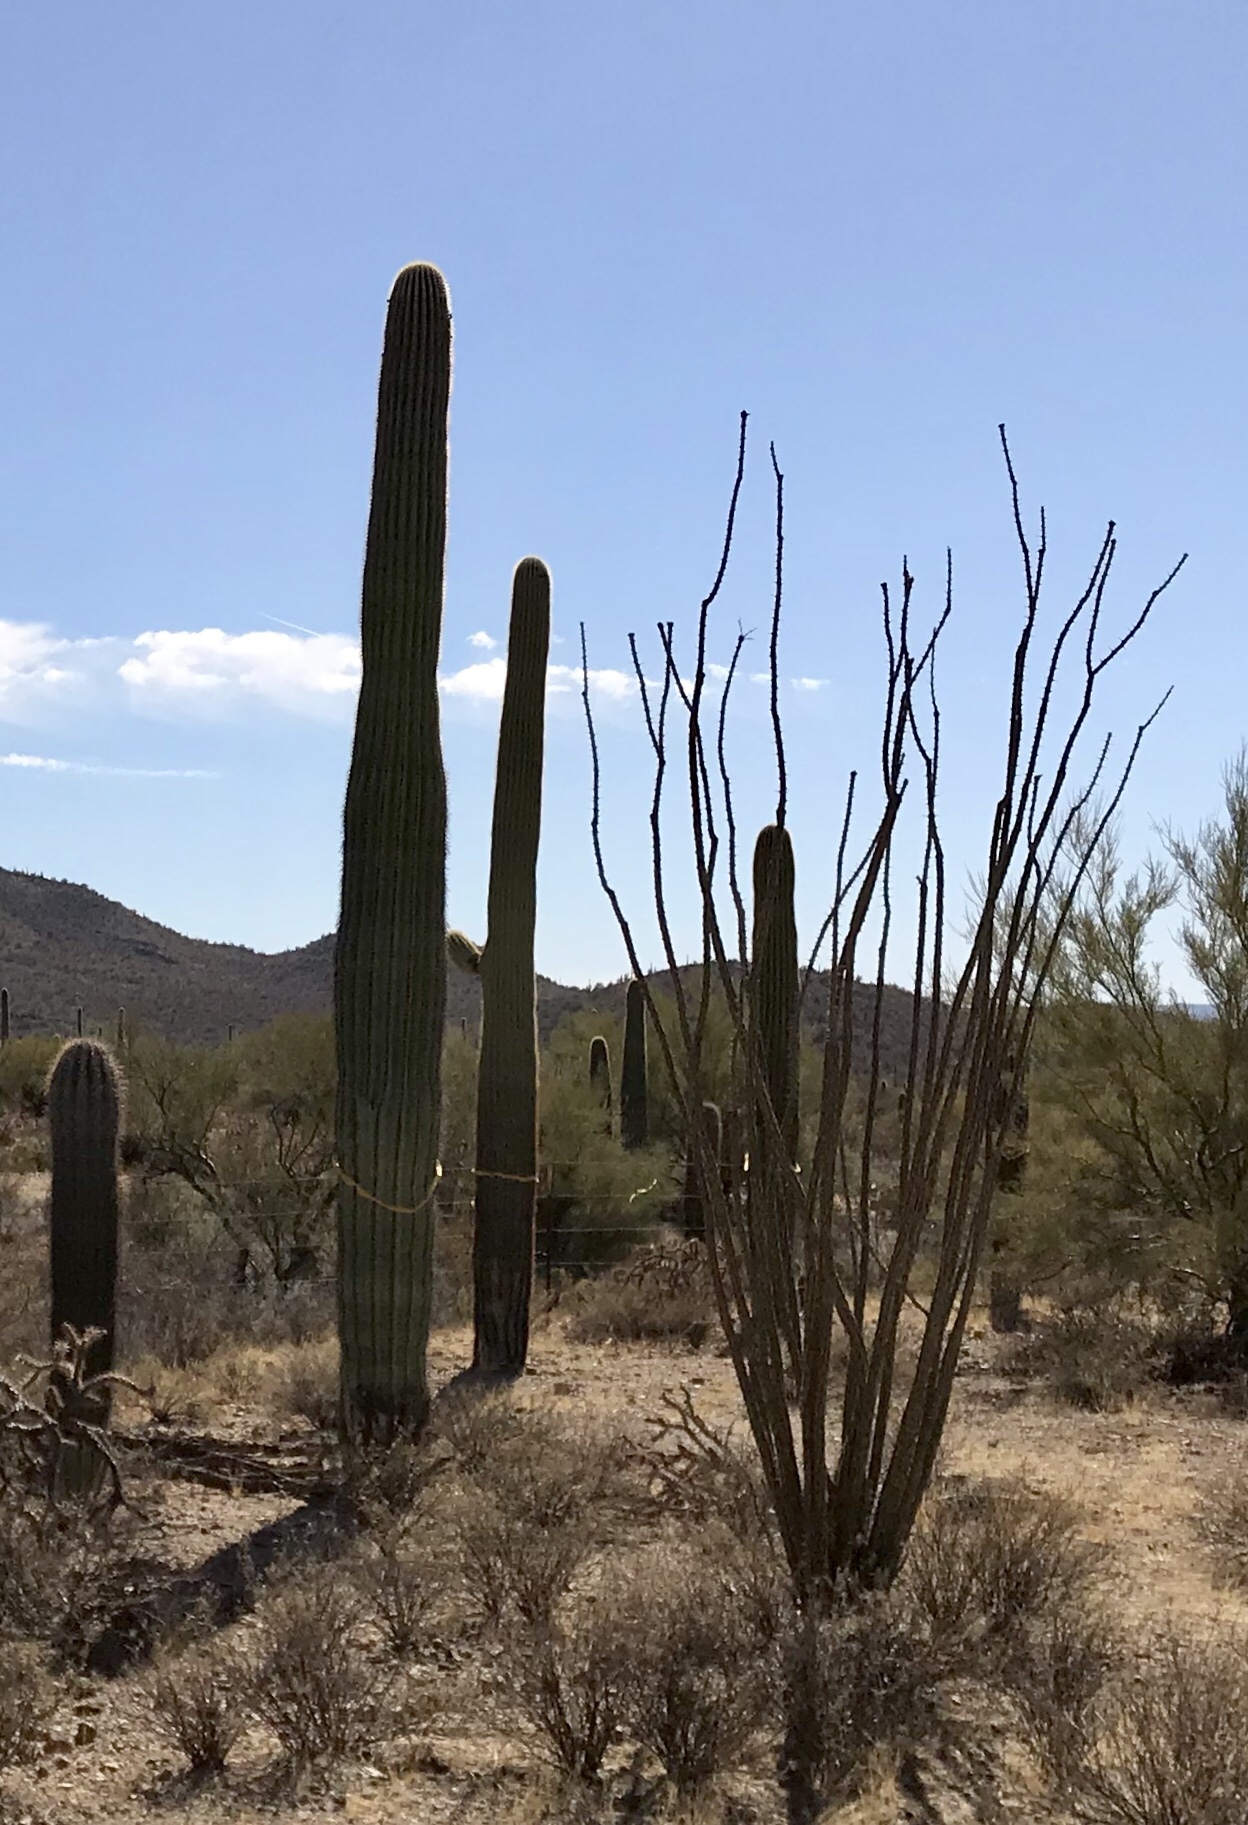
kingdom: Plantae
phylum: Tracheophyta
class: Magnoliopsida
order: Ericales
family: Fouquieriaceae
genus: Fouquieria
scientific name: Fouquieria splendens
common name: Vine-cactus
